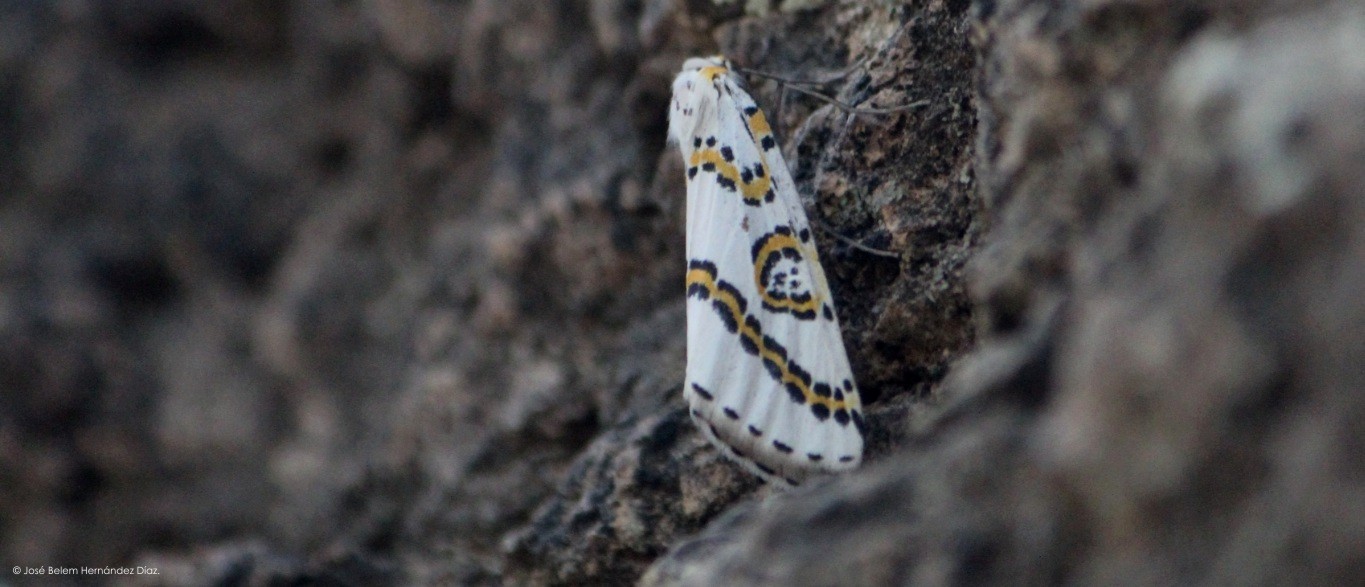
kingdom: Animalia
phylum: Arthropoda
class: Insecta
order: Lepidoptera
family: Geometridae
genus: Philtraea
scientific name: Philtraea mexicana
